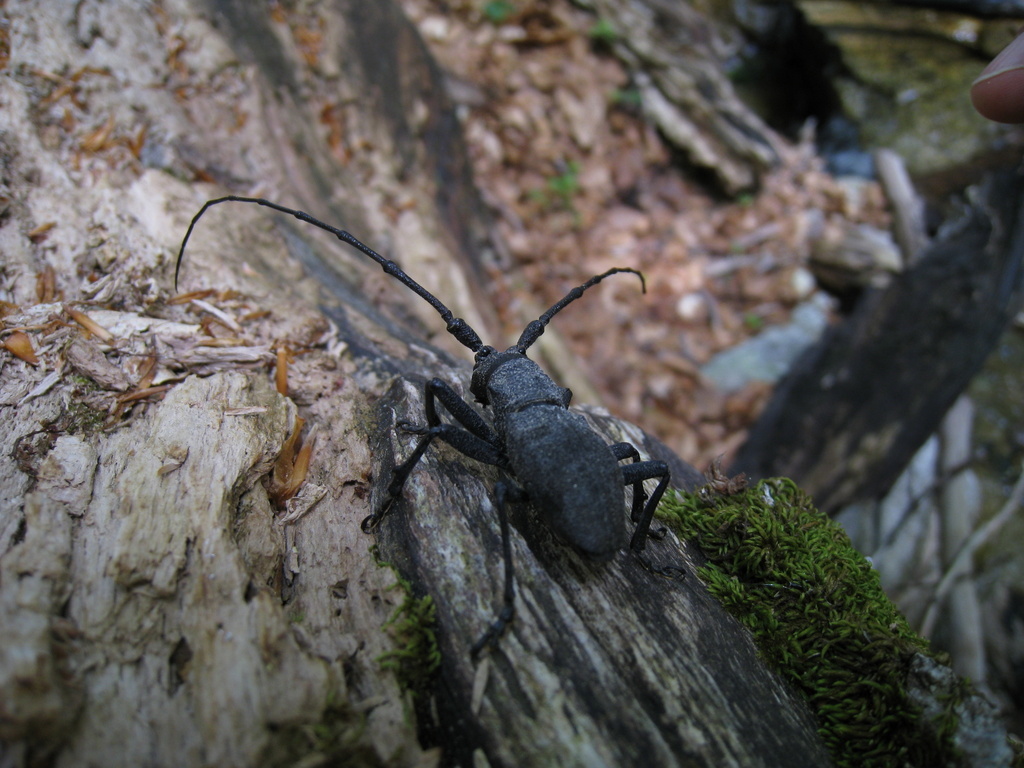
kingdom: Animalia
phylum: Arthropoda
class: Insecta
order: Coleoptera
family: Cerambycidae
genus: Morimus
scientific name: Morimus asper
